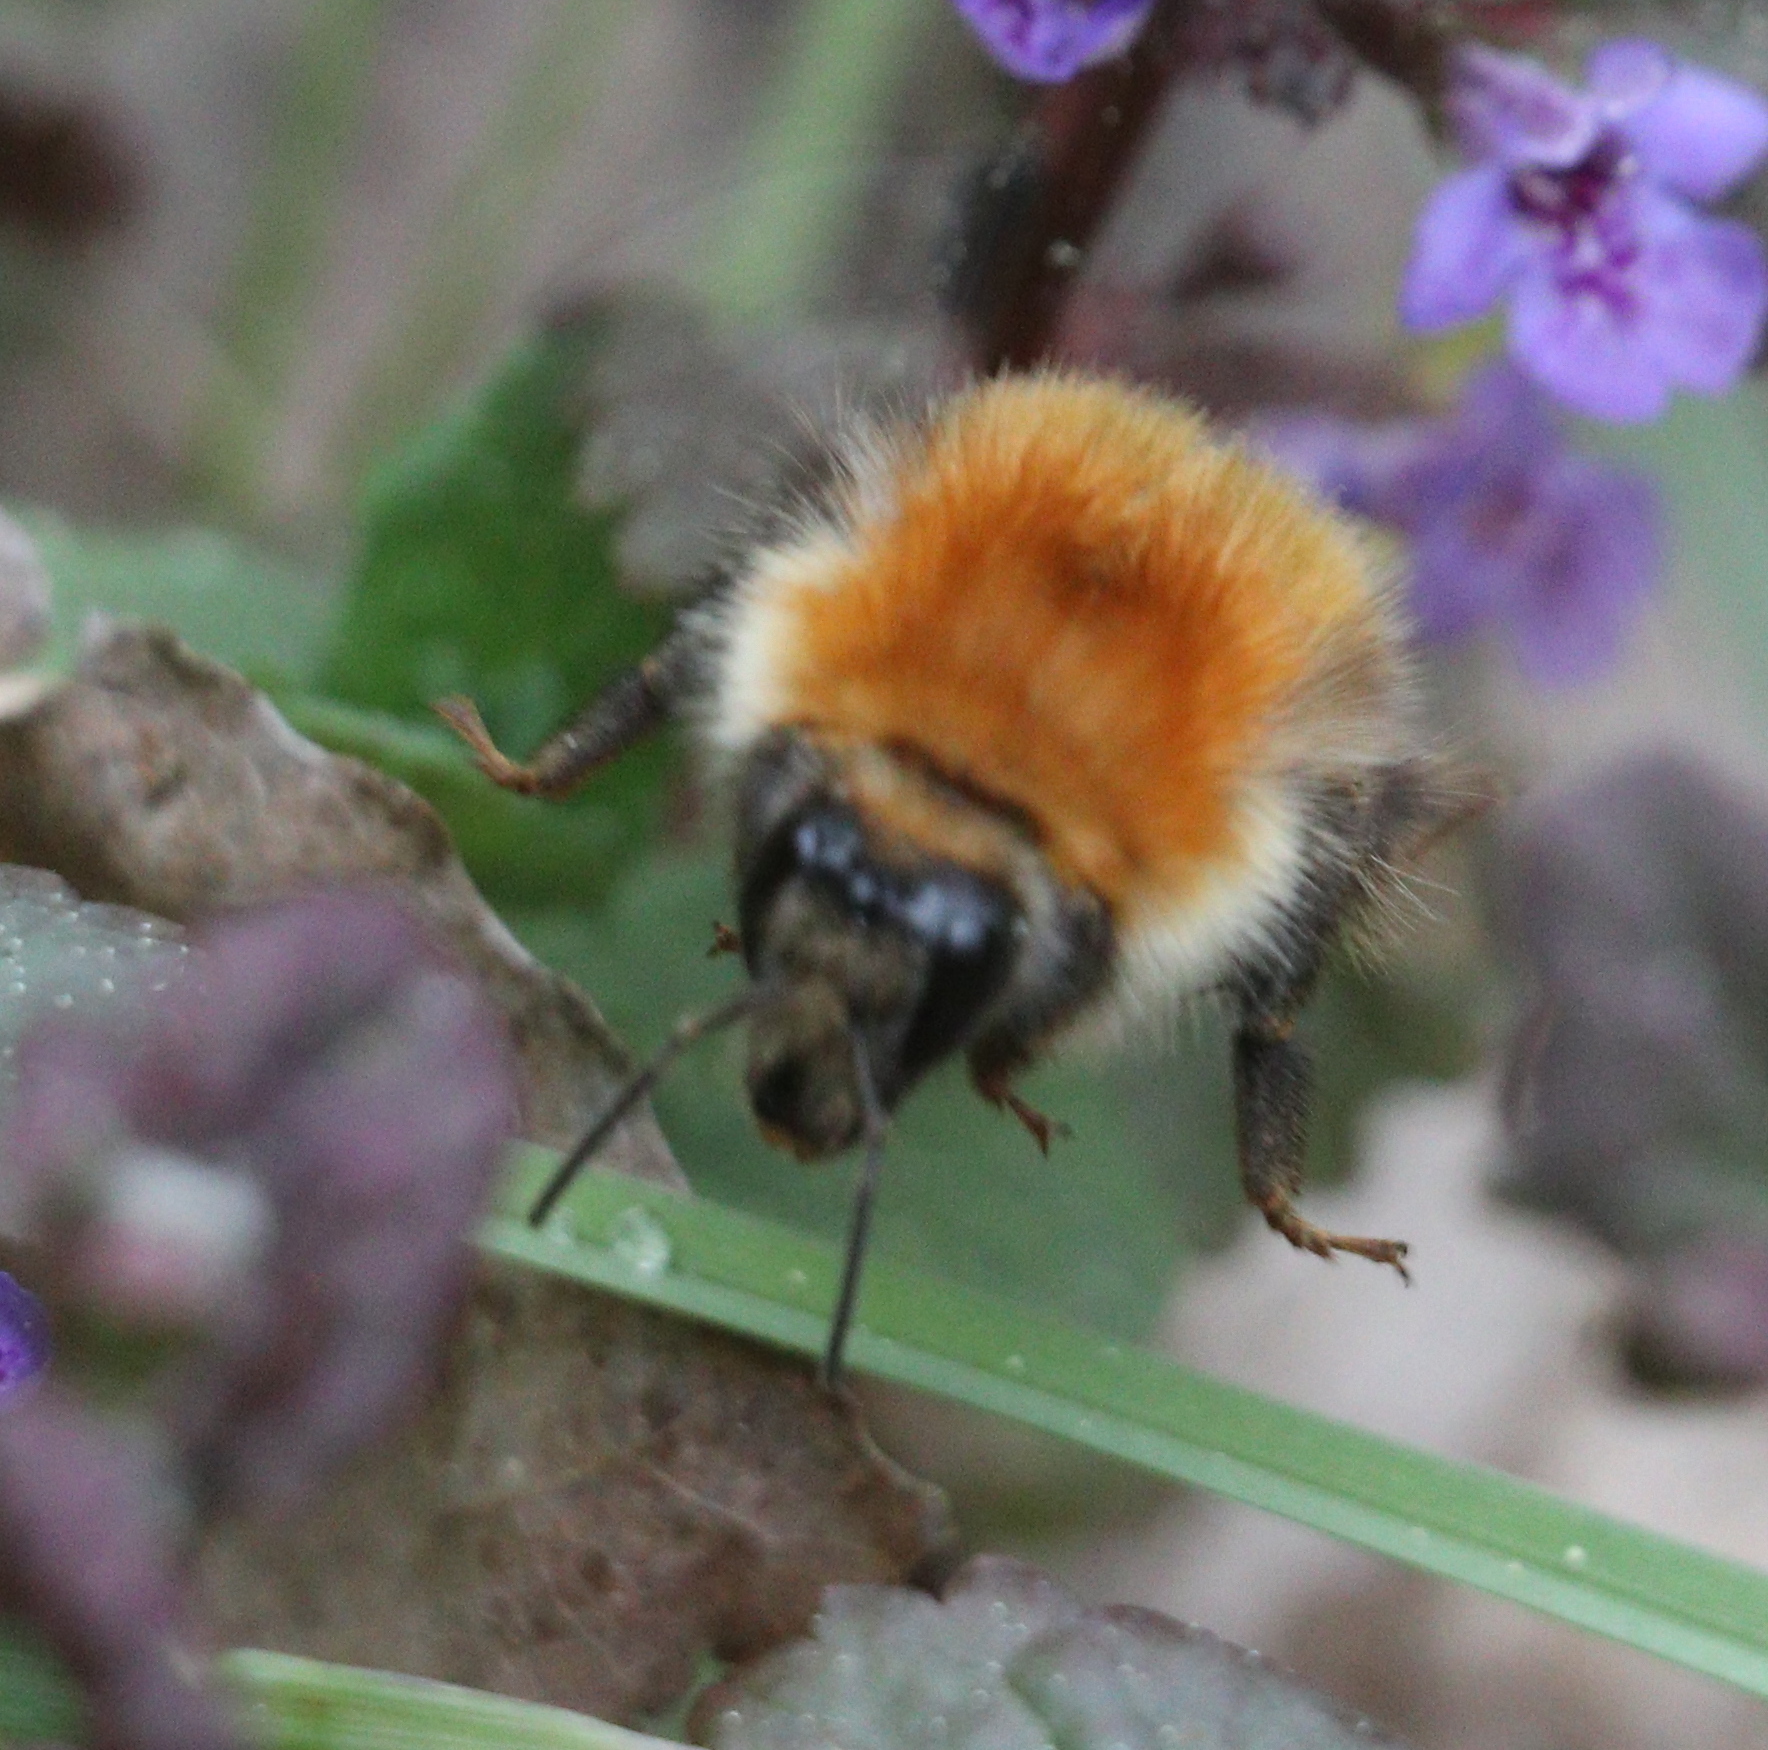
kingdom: Animalia
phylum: Arthropoda
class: Insecta
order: Hymenoptera
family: Apidae
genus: Bombus
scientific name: Bombus schrencki
